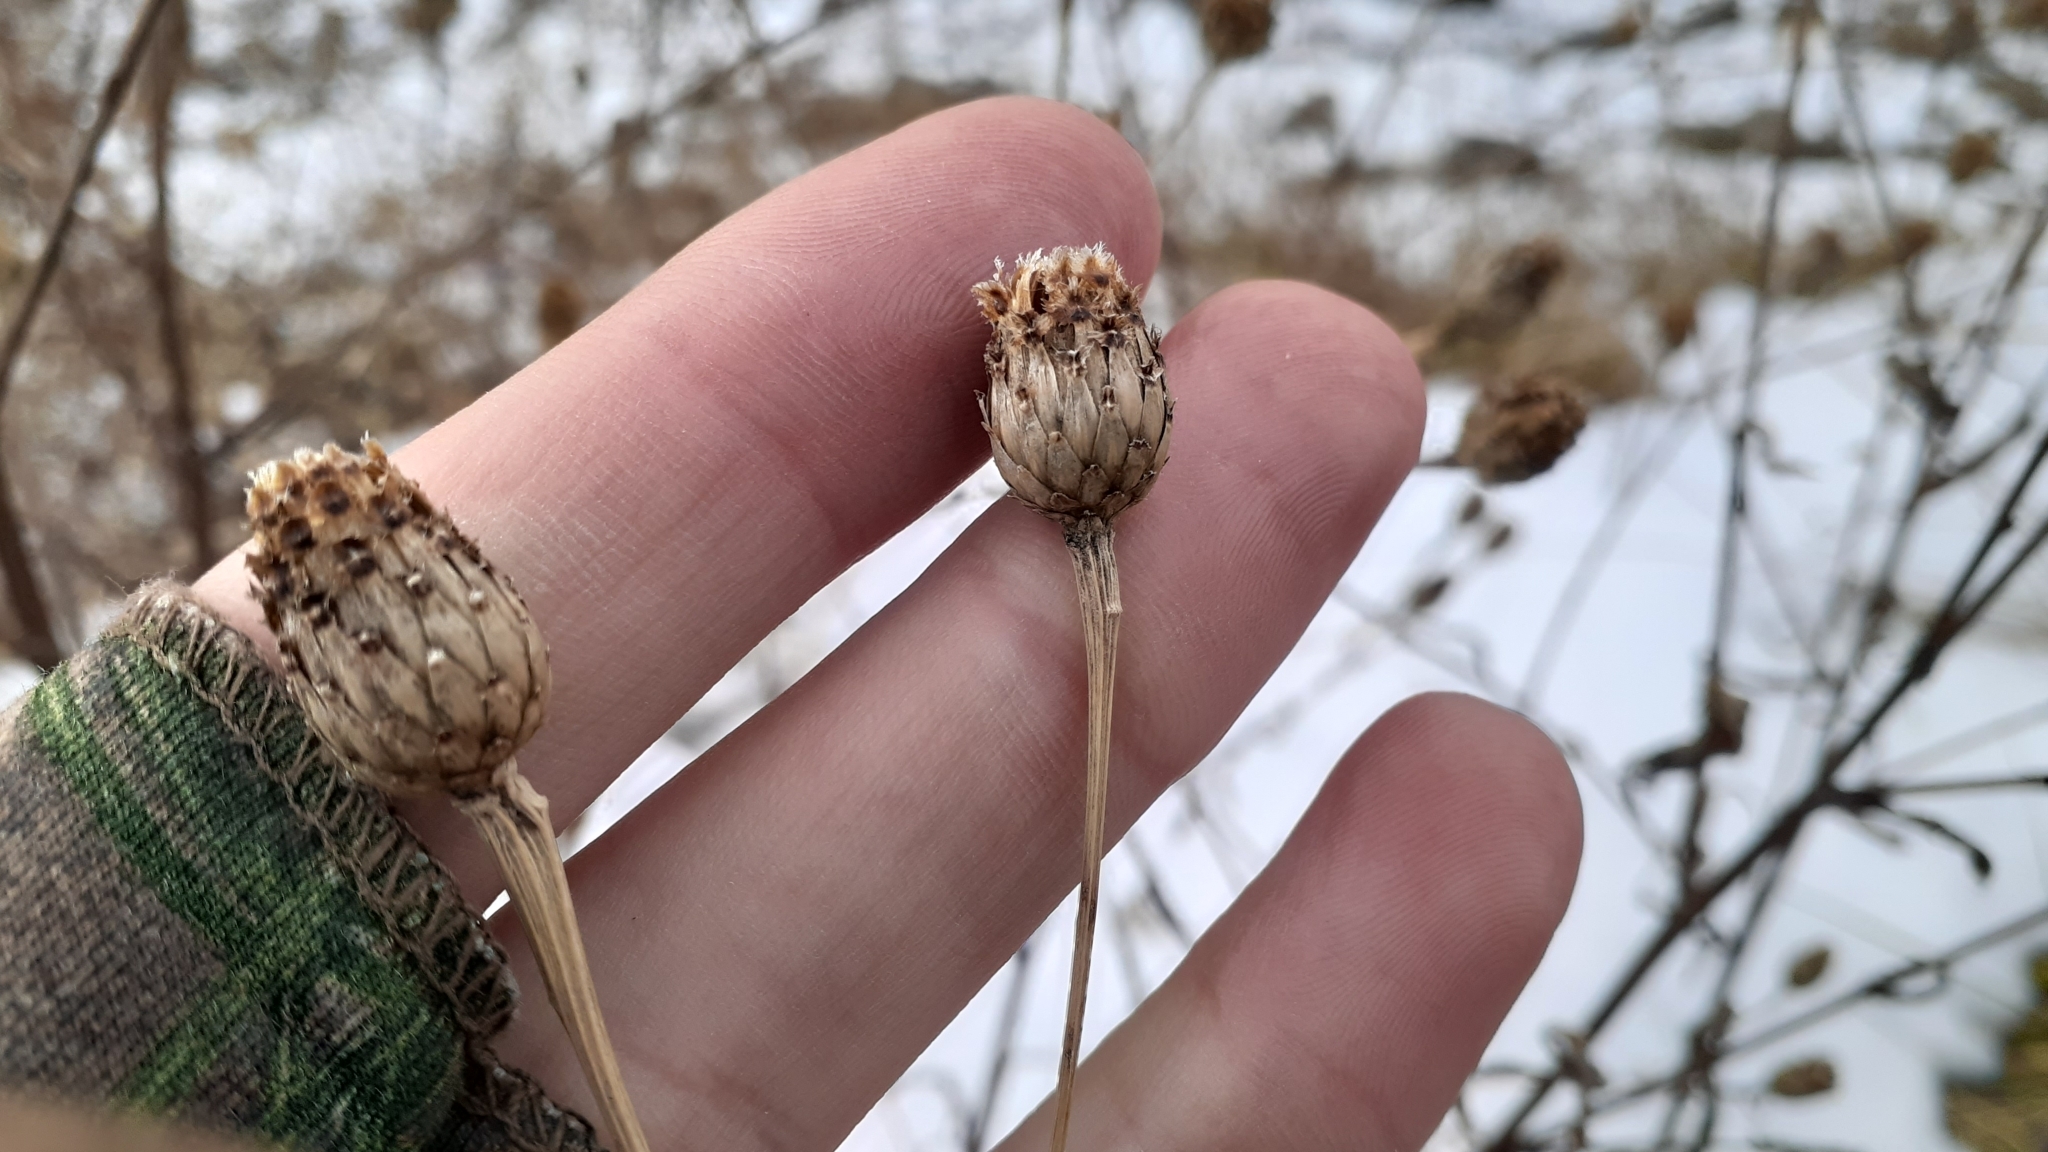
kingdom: Plantae
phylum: Tracheophyta
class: Magnoliopsida
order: Asterales
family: Asteraceae
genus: Centaurea
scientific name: Centaurea stoebe
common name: Spotted knapweed
